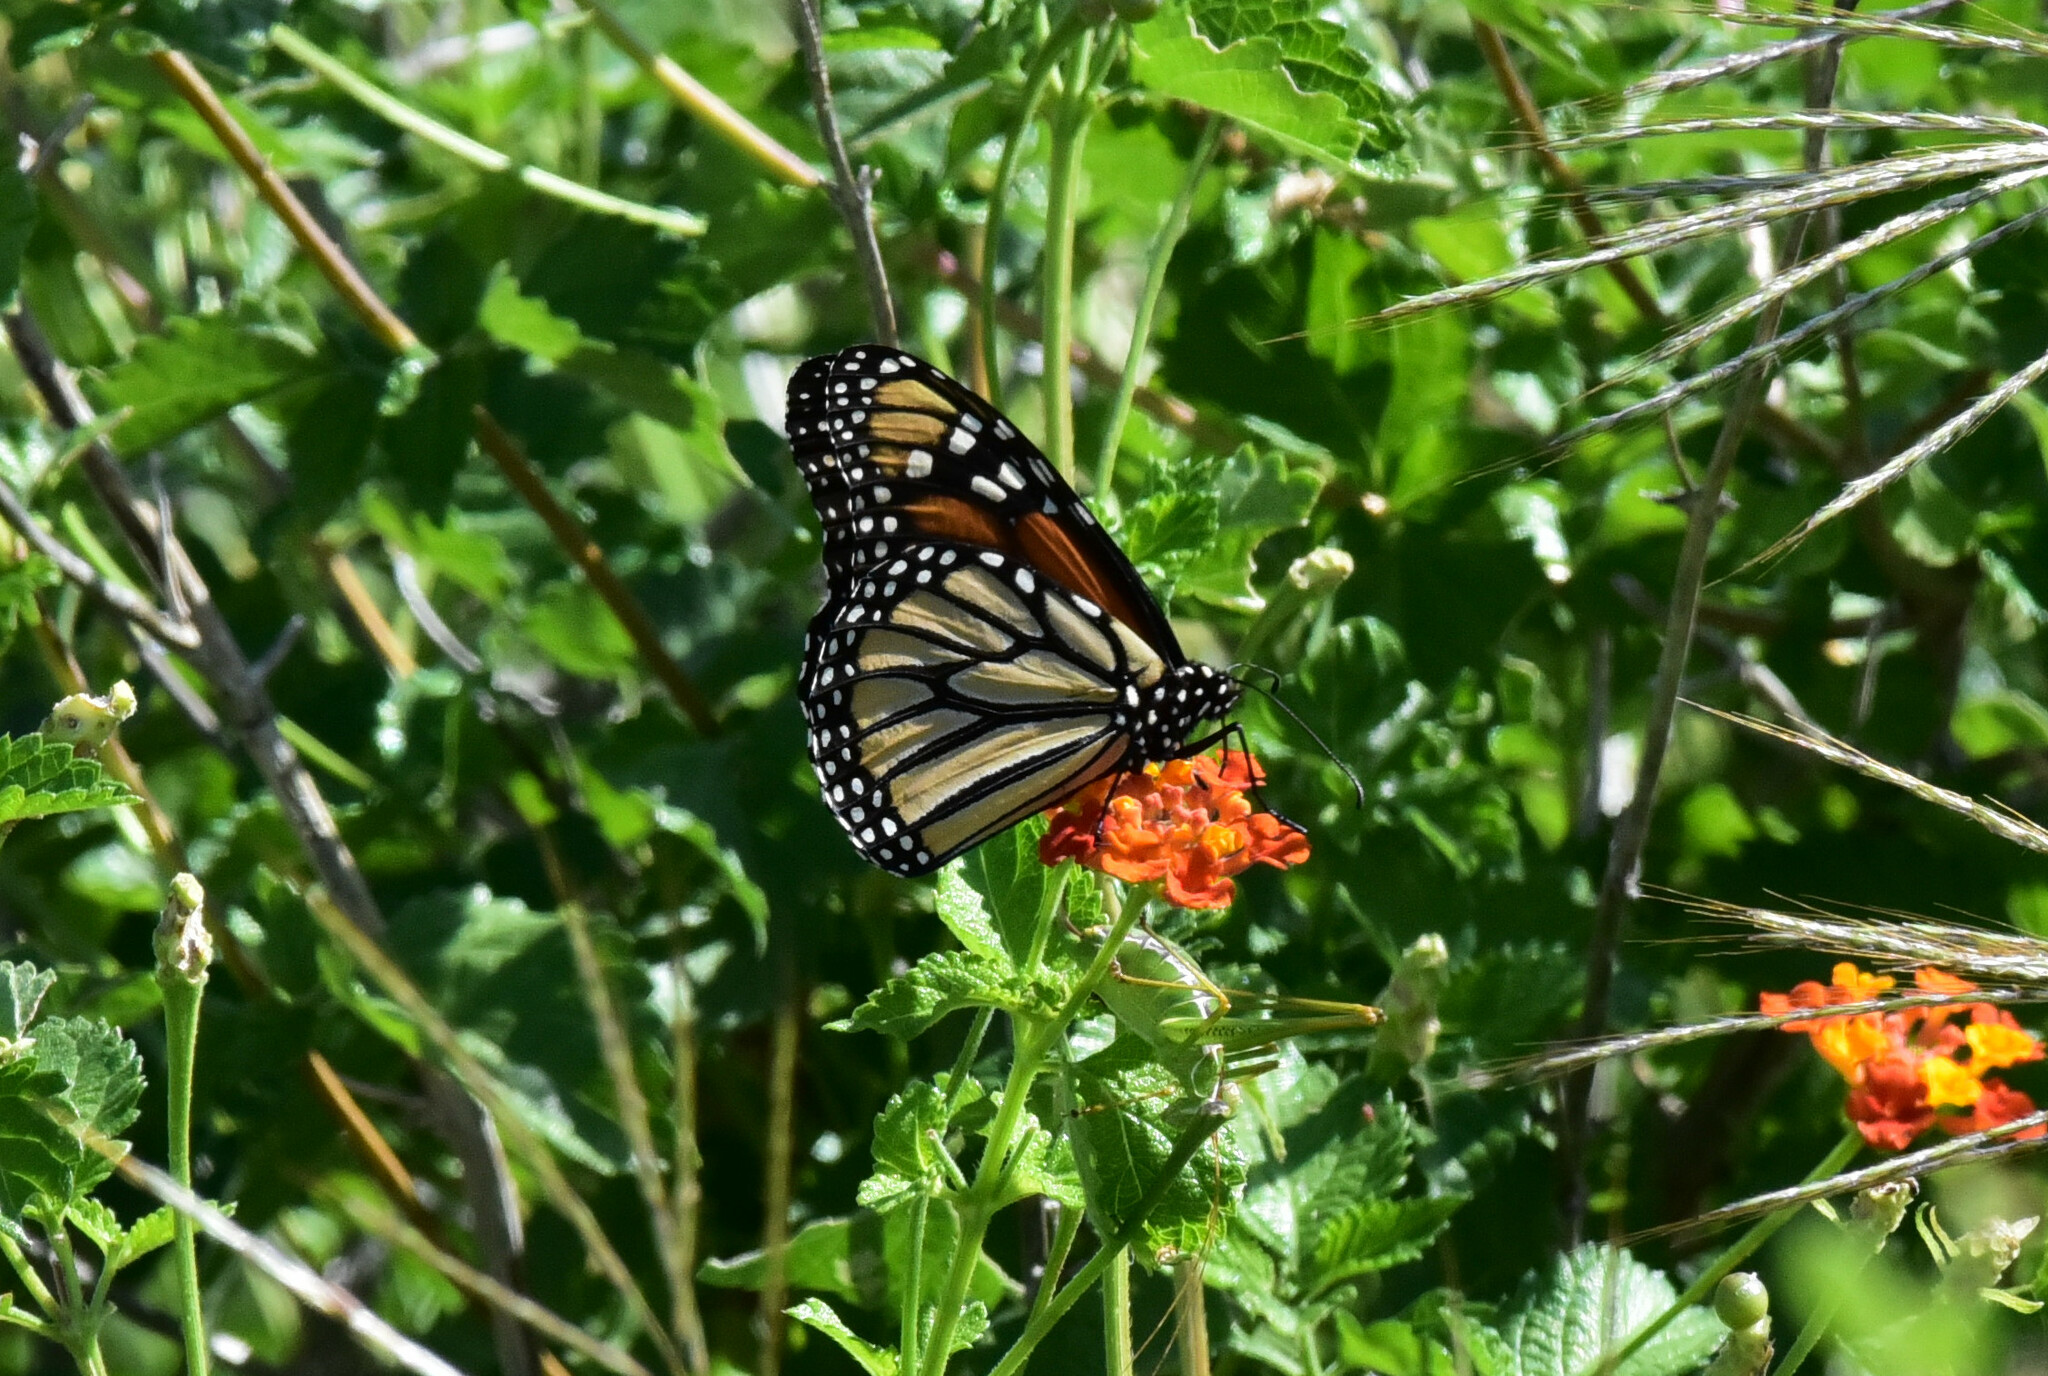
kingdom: Animalia
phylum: Arthropoda
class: Insecta
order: Lepidoptera
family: Nymphalidae
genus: Danaus
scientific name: Danaus plexippus
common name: Monarch
